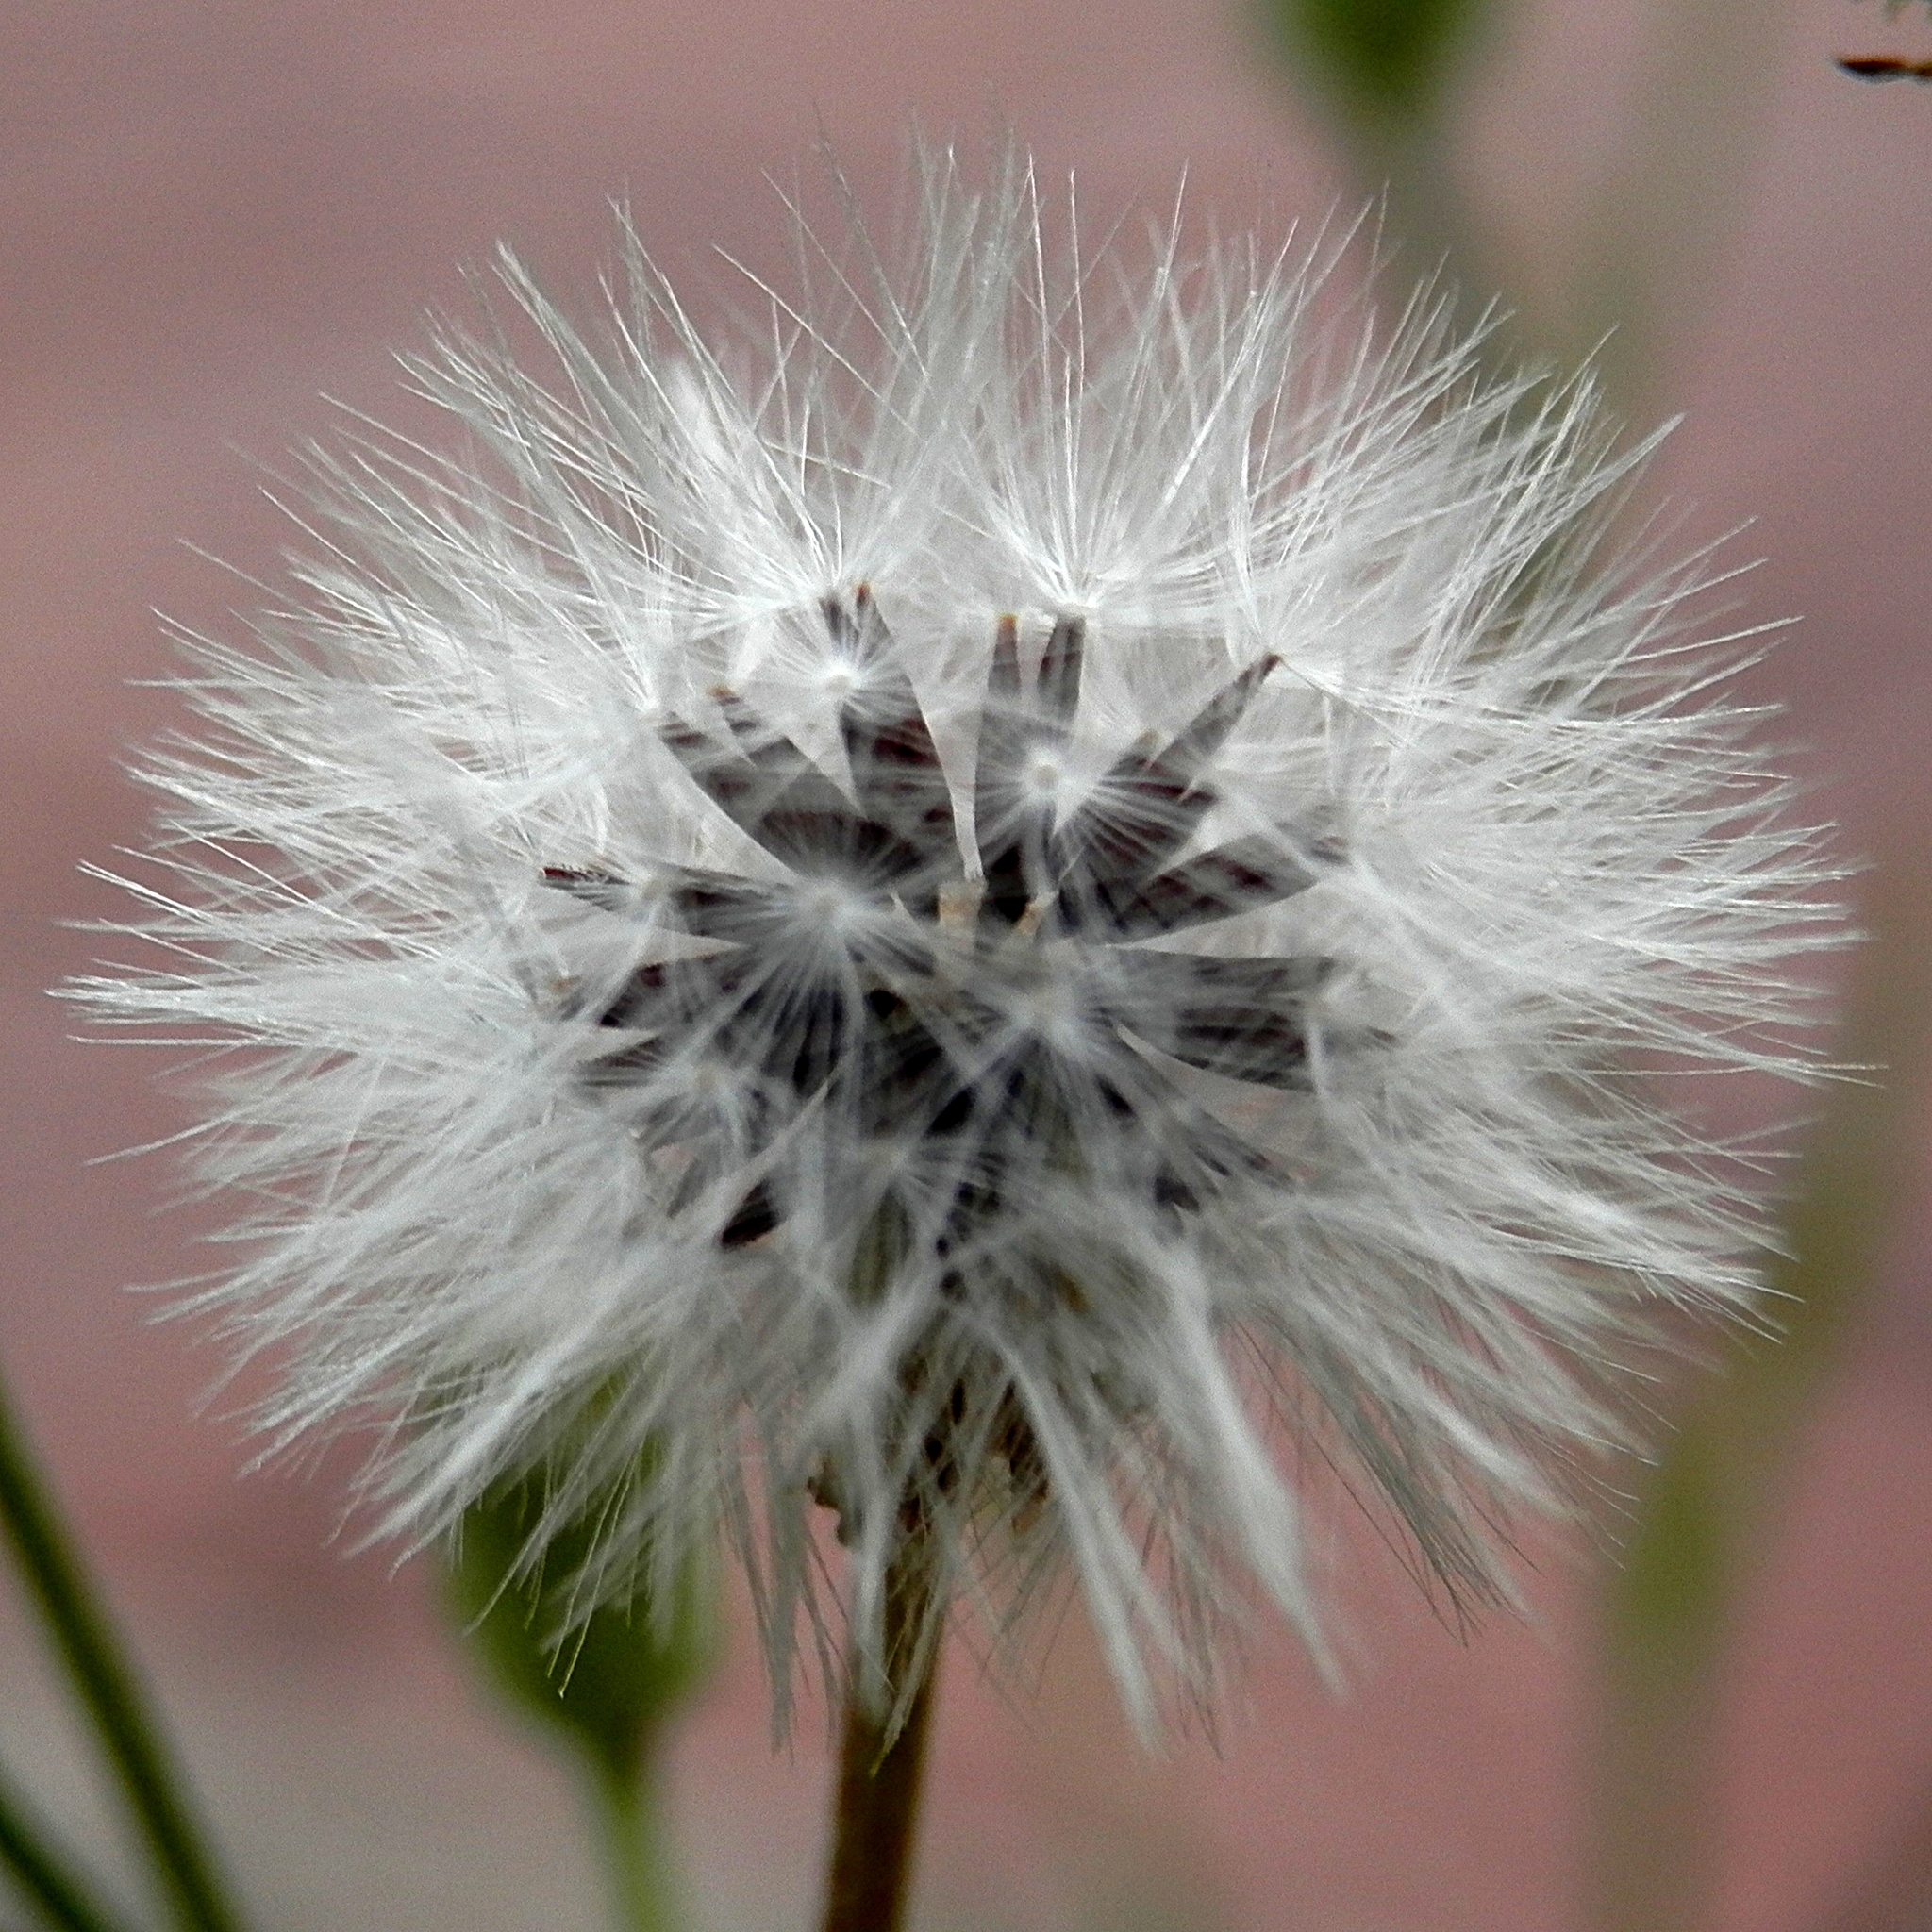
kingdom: Plantae
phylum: Tracheophyta
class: Magnoliopsida
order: Asterales
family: Asteraceae
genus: Taraxacum
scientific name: Taraxacum officinale
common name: Common dandelion
